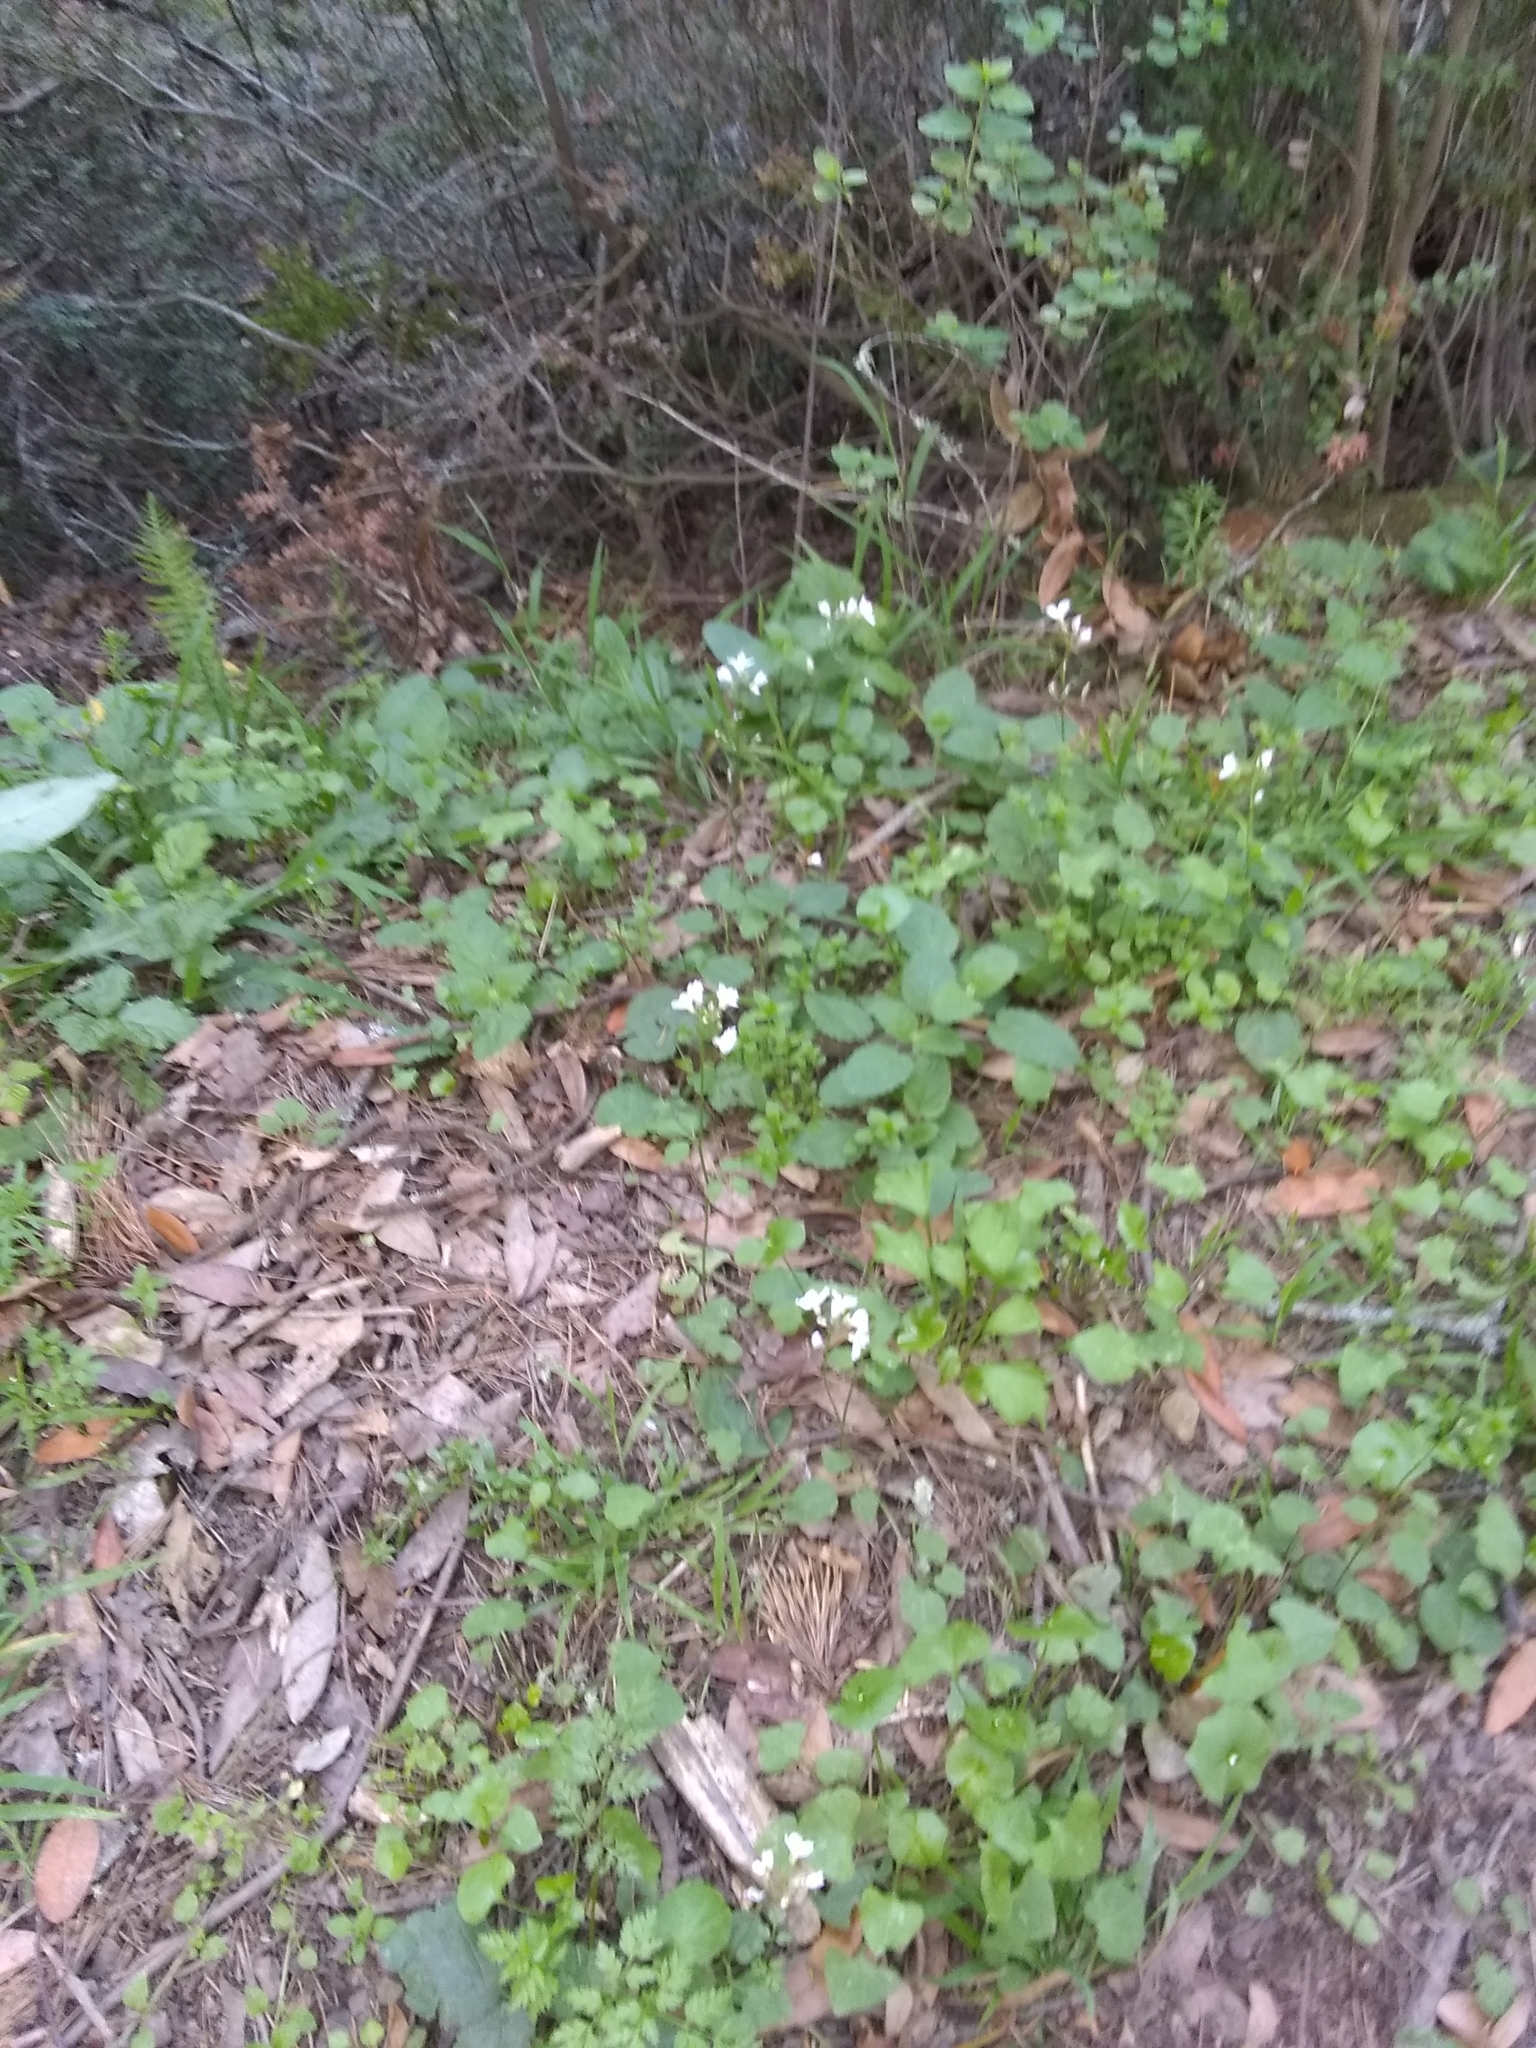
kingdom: Plantae
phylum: Tracheophyta
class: Magnoliopsida
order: Brassicales
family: Brassicaceae
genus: Cardamine
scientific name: Cardamine californica
